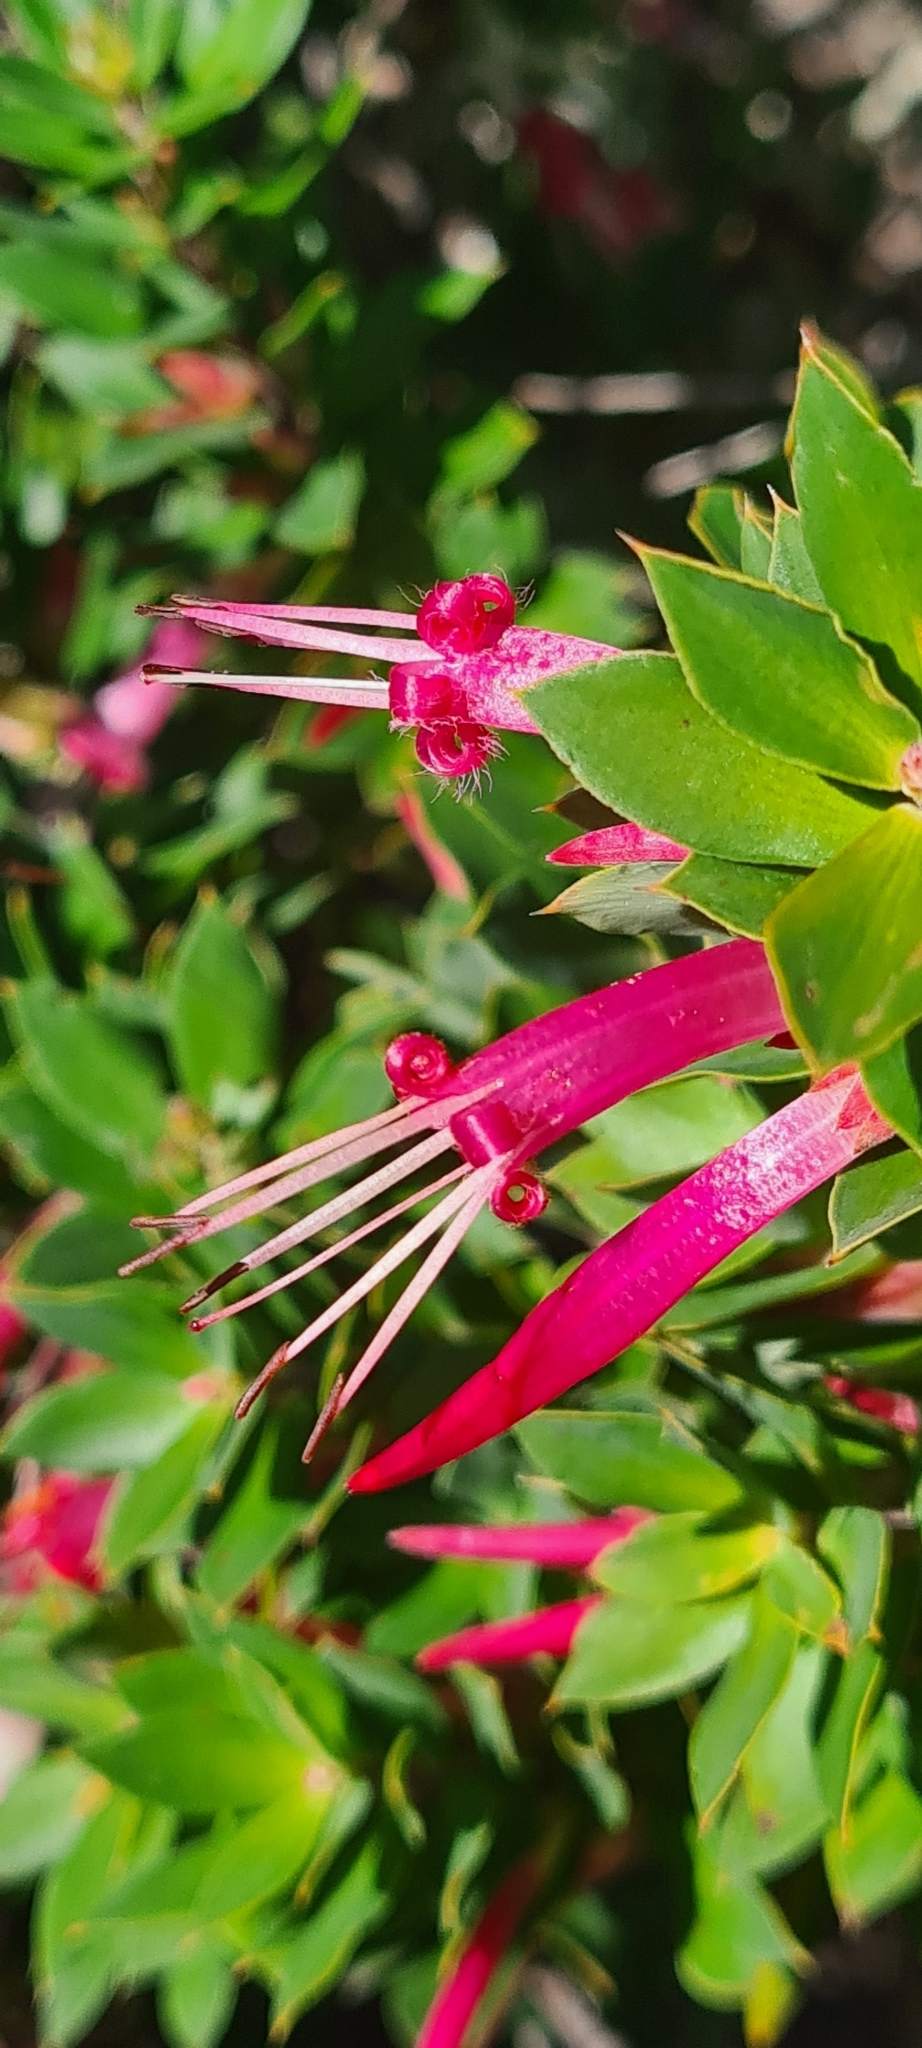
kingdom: Plantae
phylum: Tracheophyta
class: Magnoliopsida
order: Ericales
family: Ericaceae
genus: Styphelia
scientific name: Styphelia tubiflora
